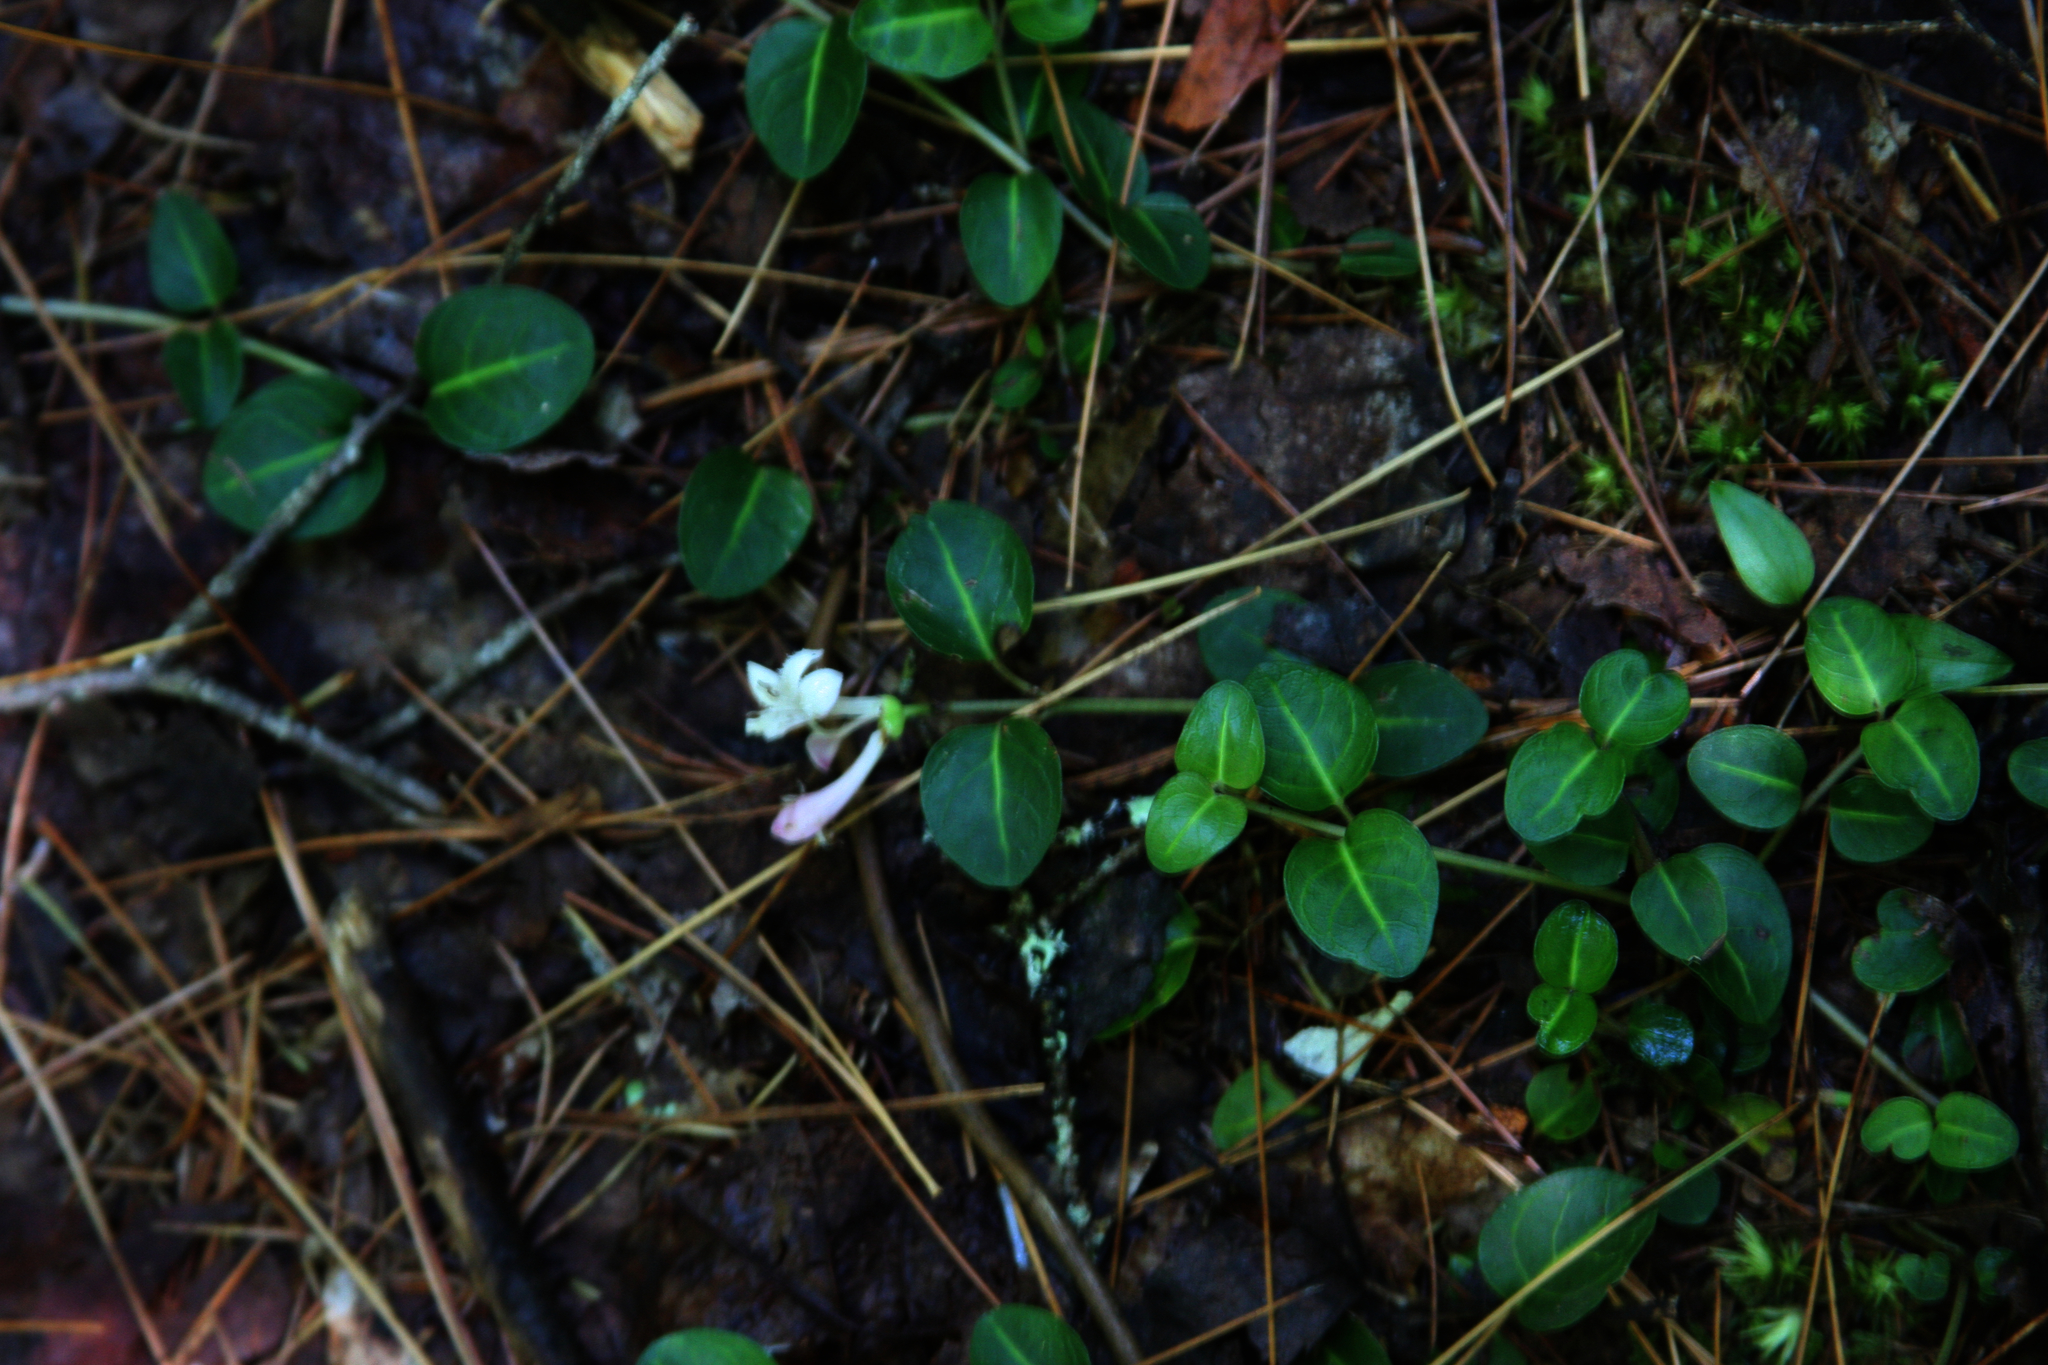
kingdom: Plantae
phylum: Tracheophyta
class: Magnoliopsida
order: Gentianales
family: Rubiaceae
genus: Mitchella
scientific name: Mitchella repens
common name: Partridge-berry
